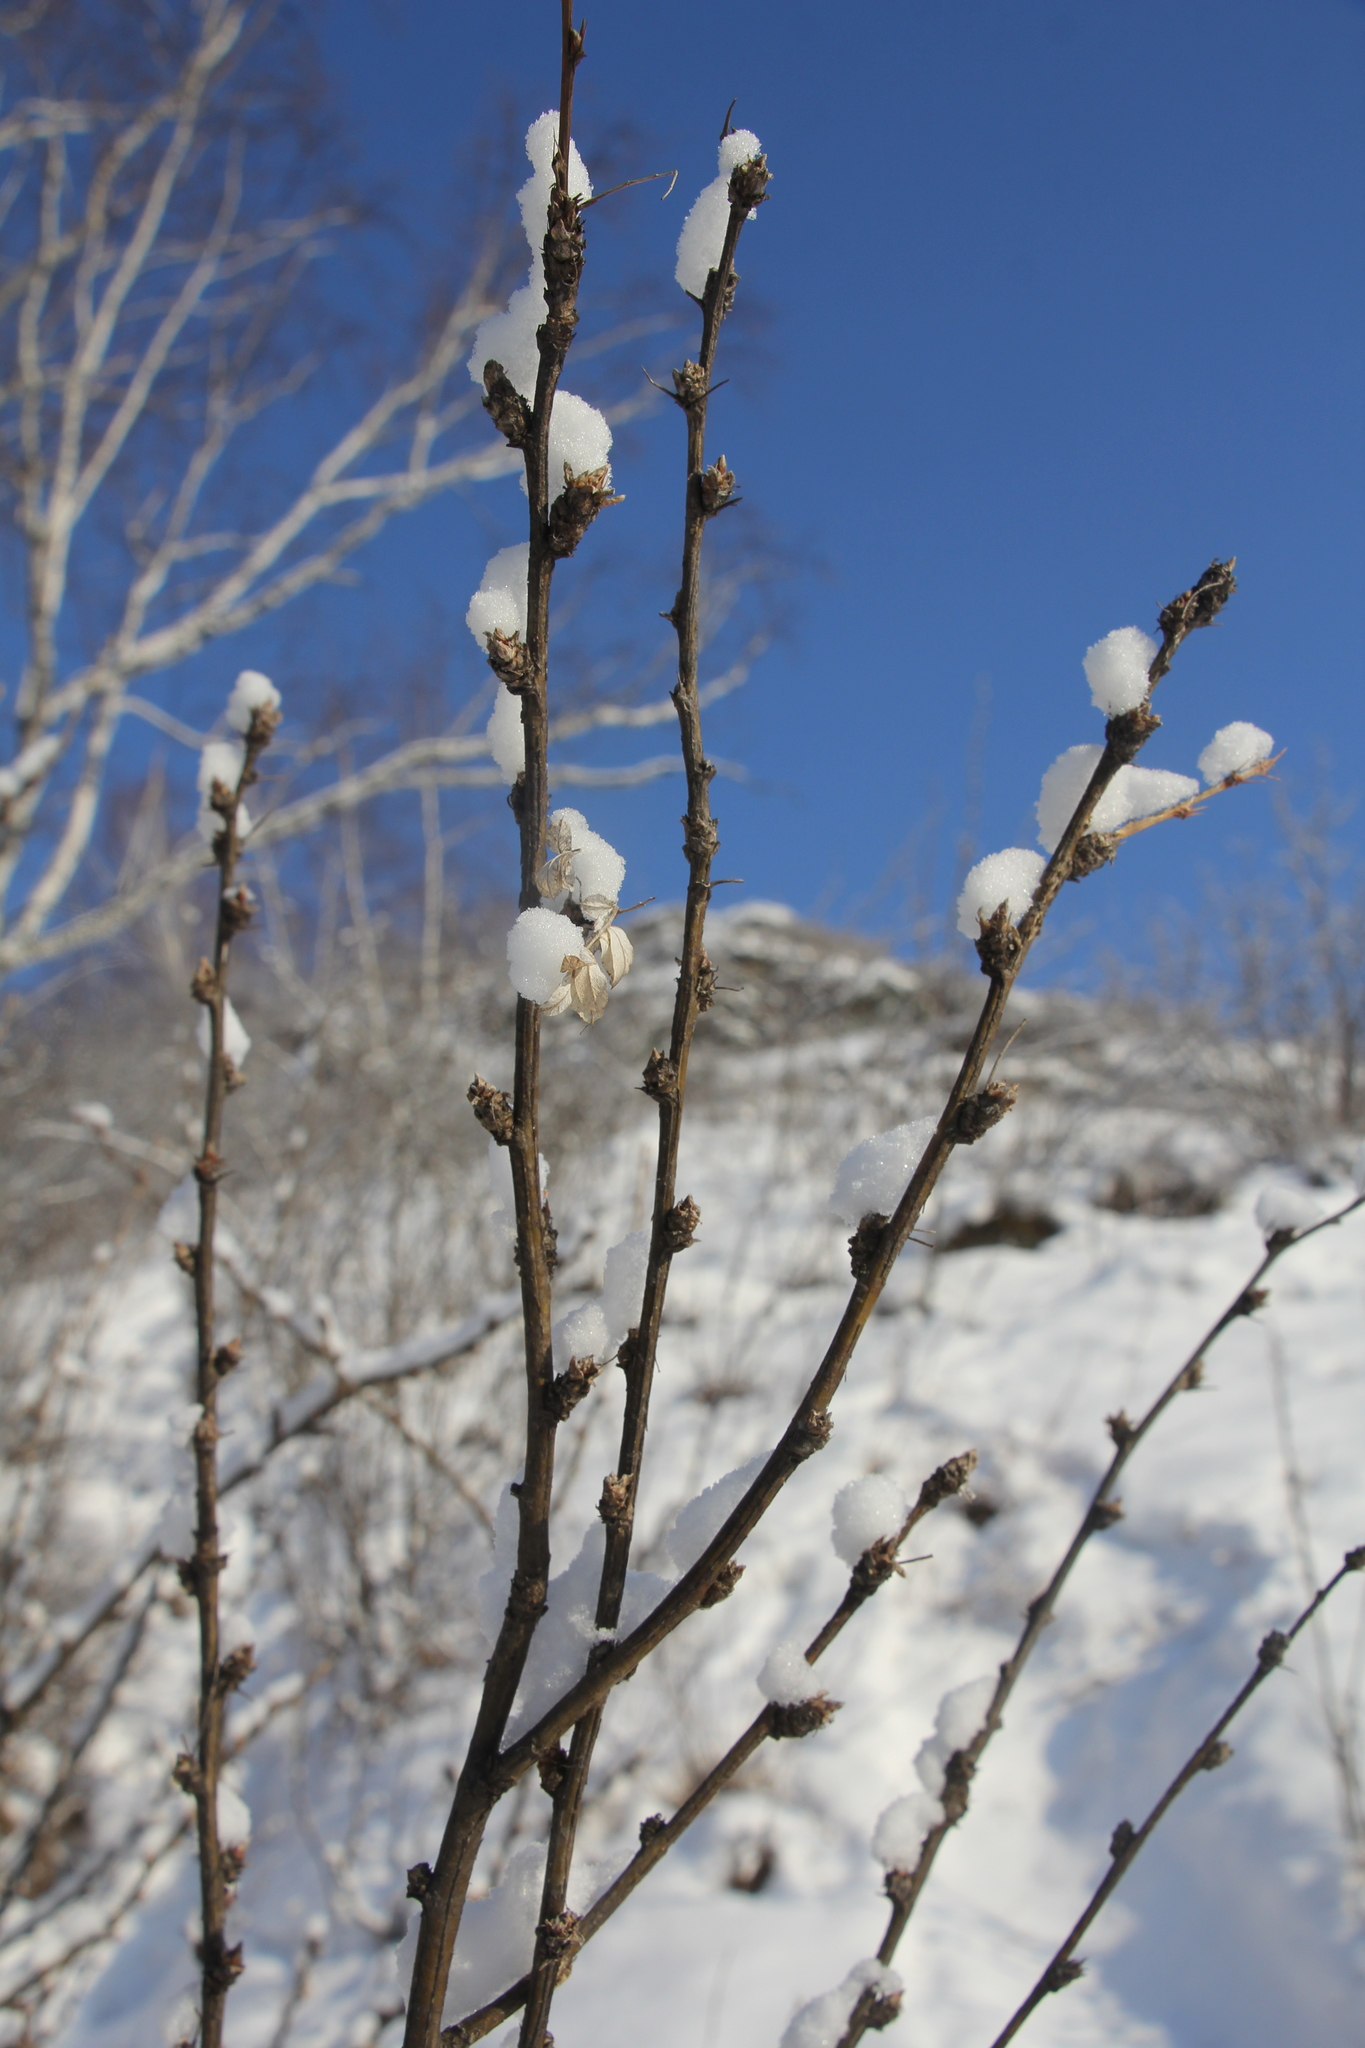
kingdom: Plantae
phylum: Tracheophyta
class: Magnoliopsida
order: Fabales
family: Fabaceae
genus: Caragana
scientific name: Caragana arborescens
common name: Siberian peashrub
